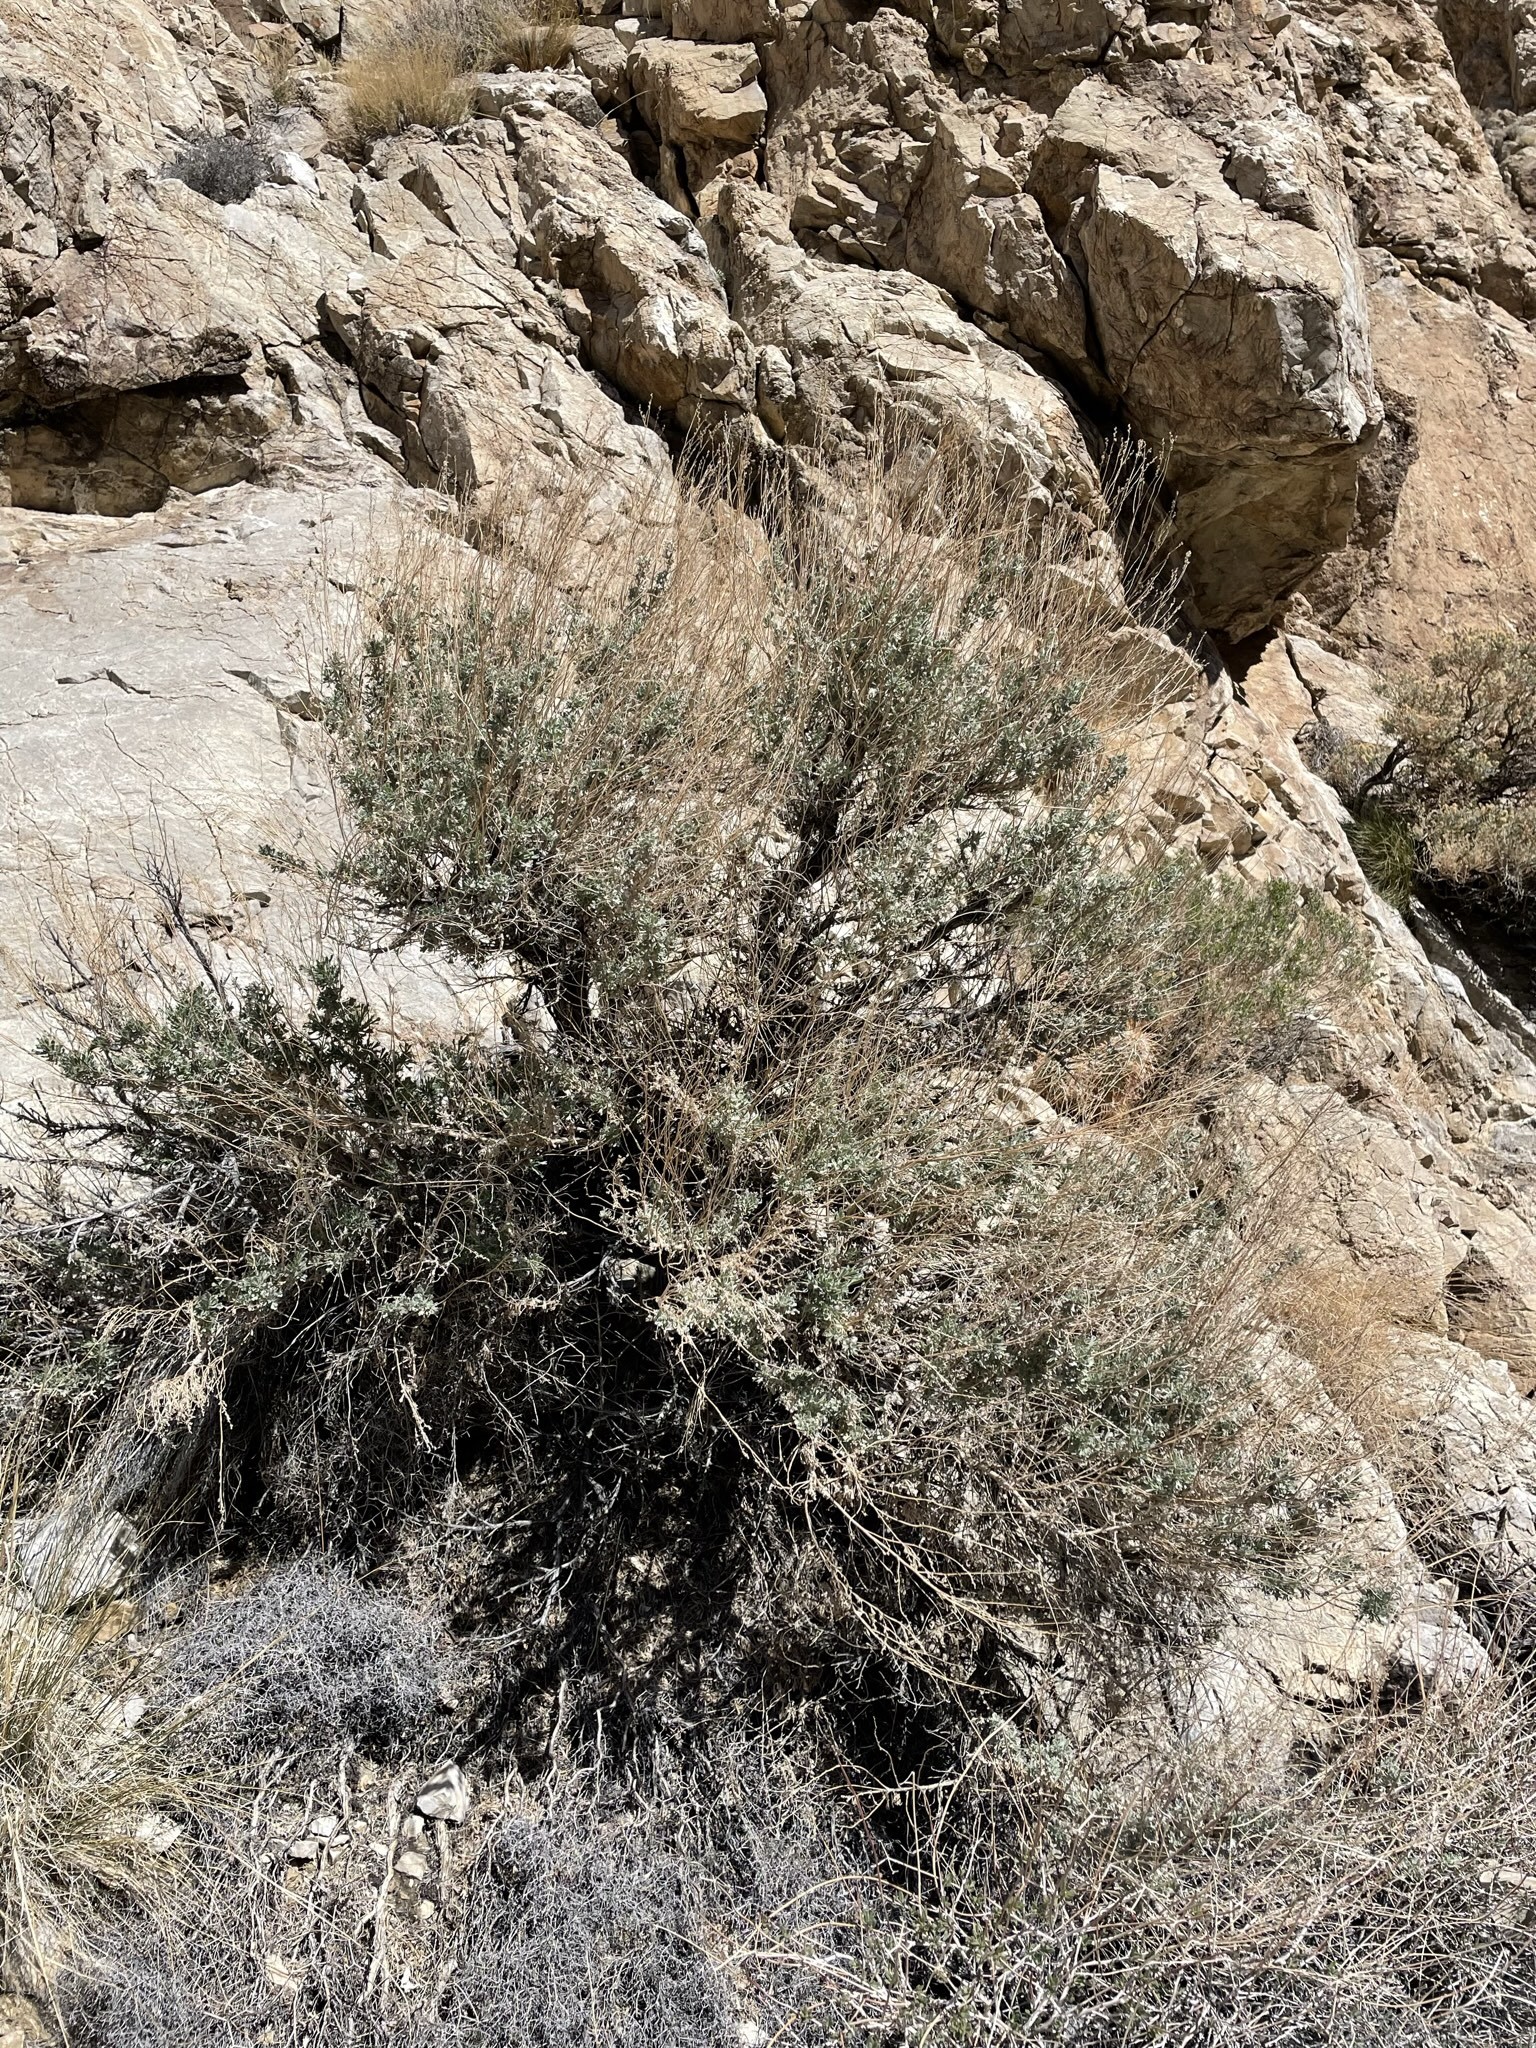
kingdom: Plantae
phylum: Tracheophyta
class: Magnoliopsida
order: Asterales
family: Asteraceae
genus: Artemisia
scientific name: Artemisia tridentata
